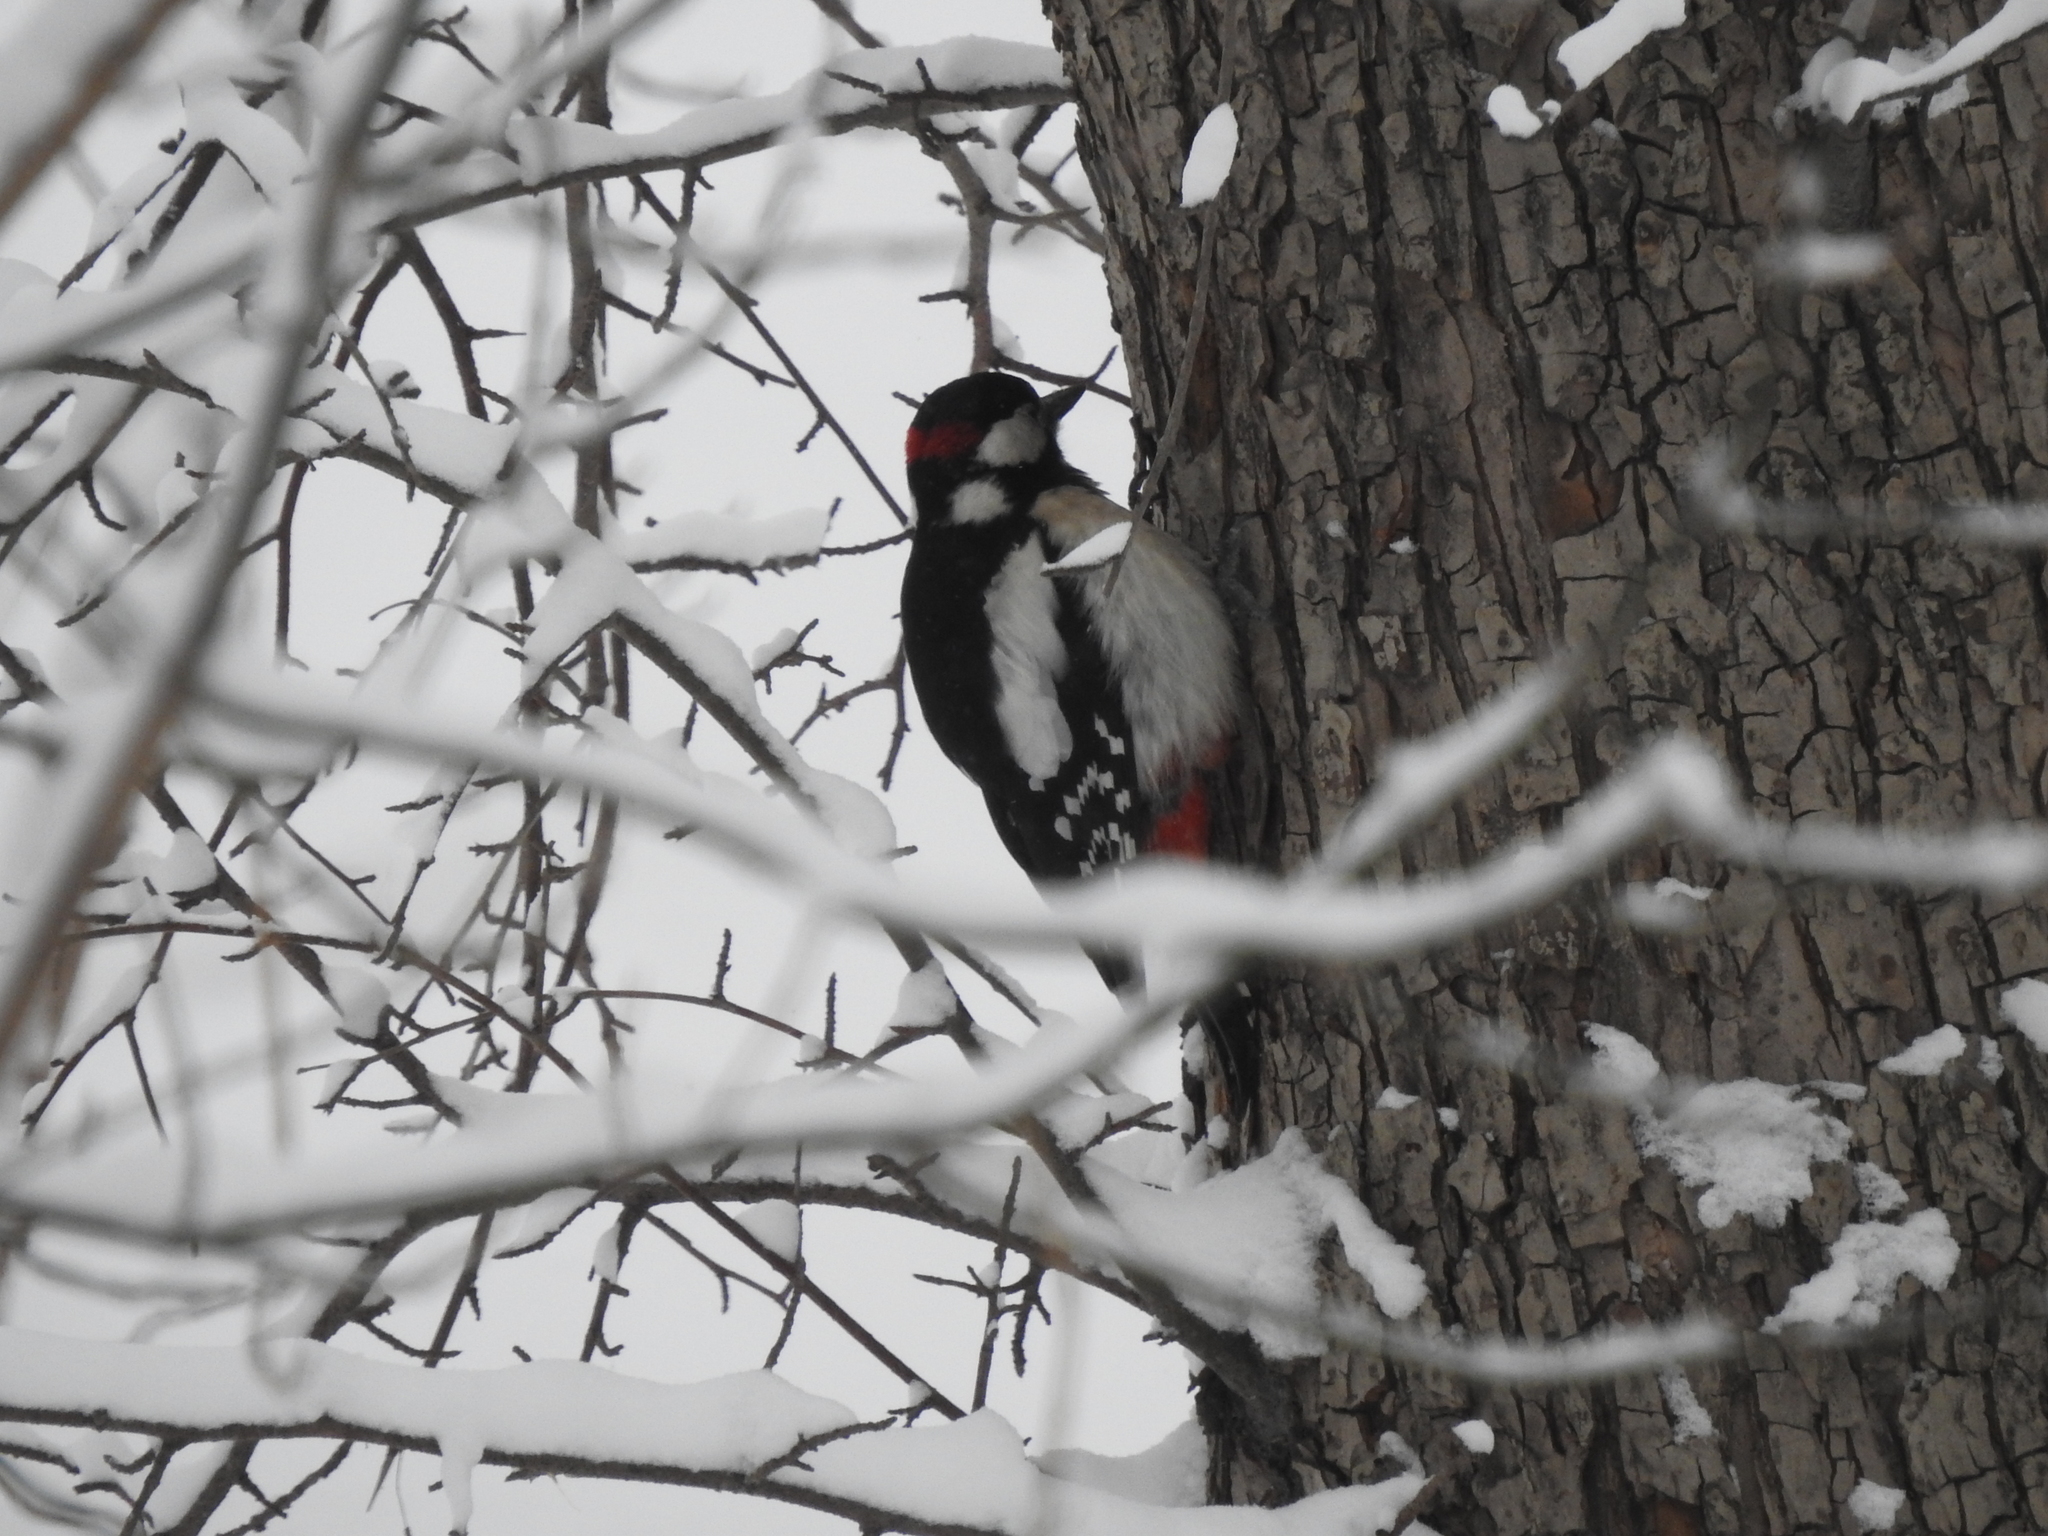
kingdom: Animalia
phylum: Chordata
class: Aves
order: Piciformes
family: Picidae
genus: Dendrocopos
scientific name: Dendrocopos major
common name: Great spotted woodpecker
